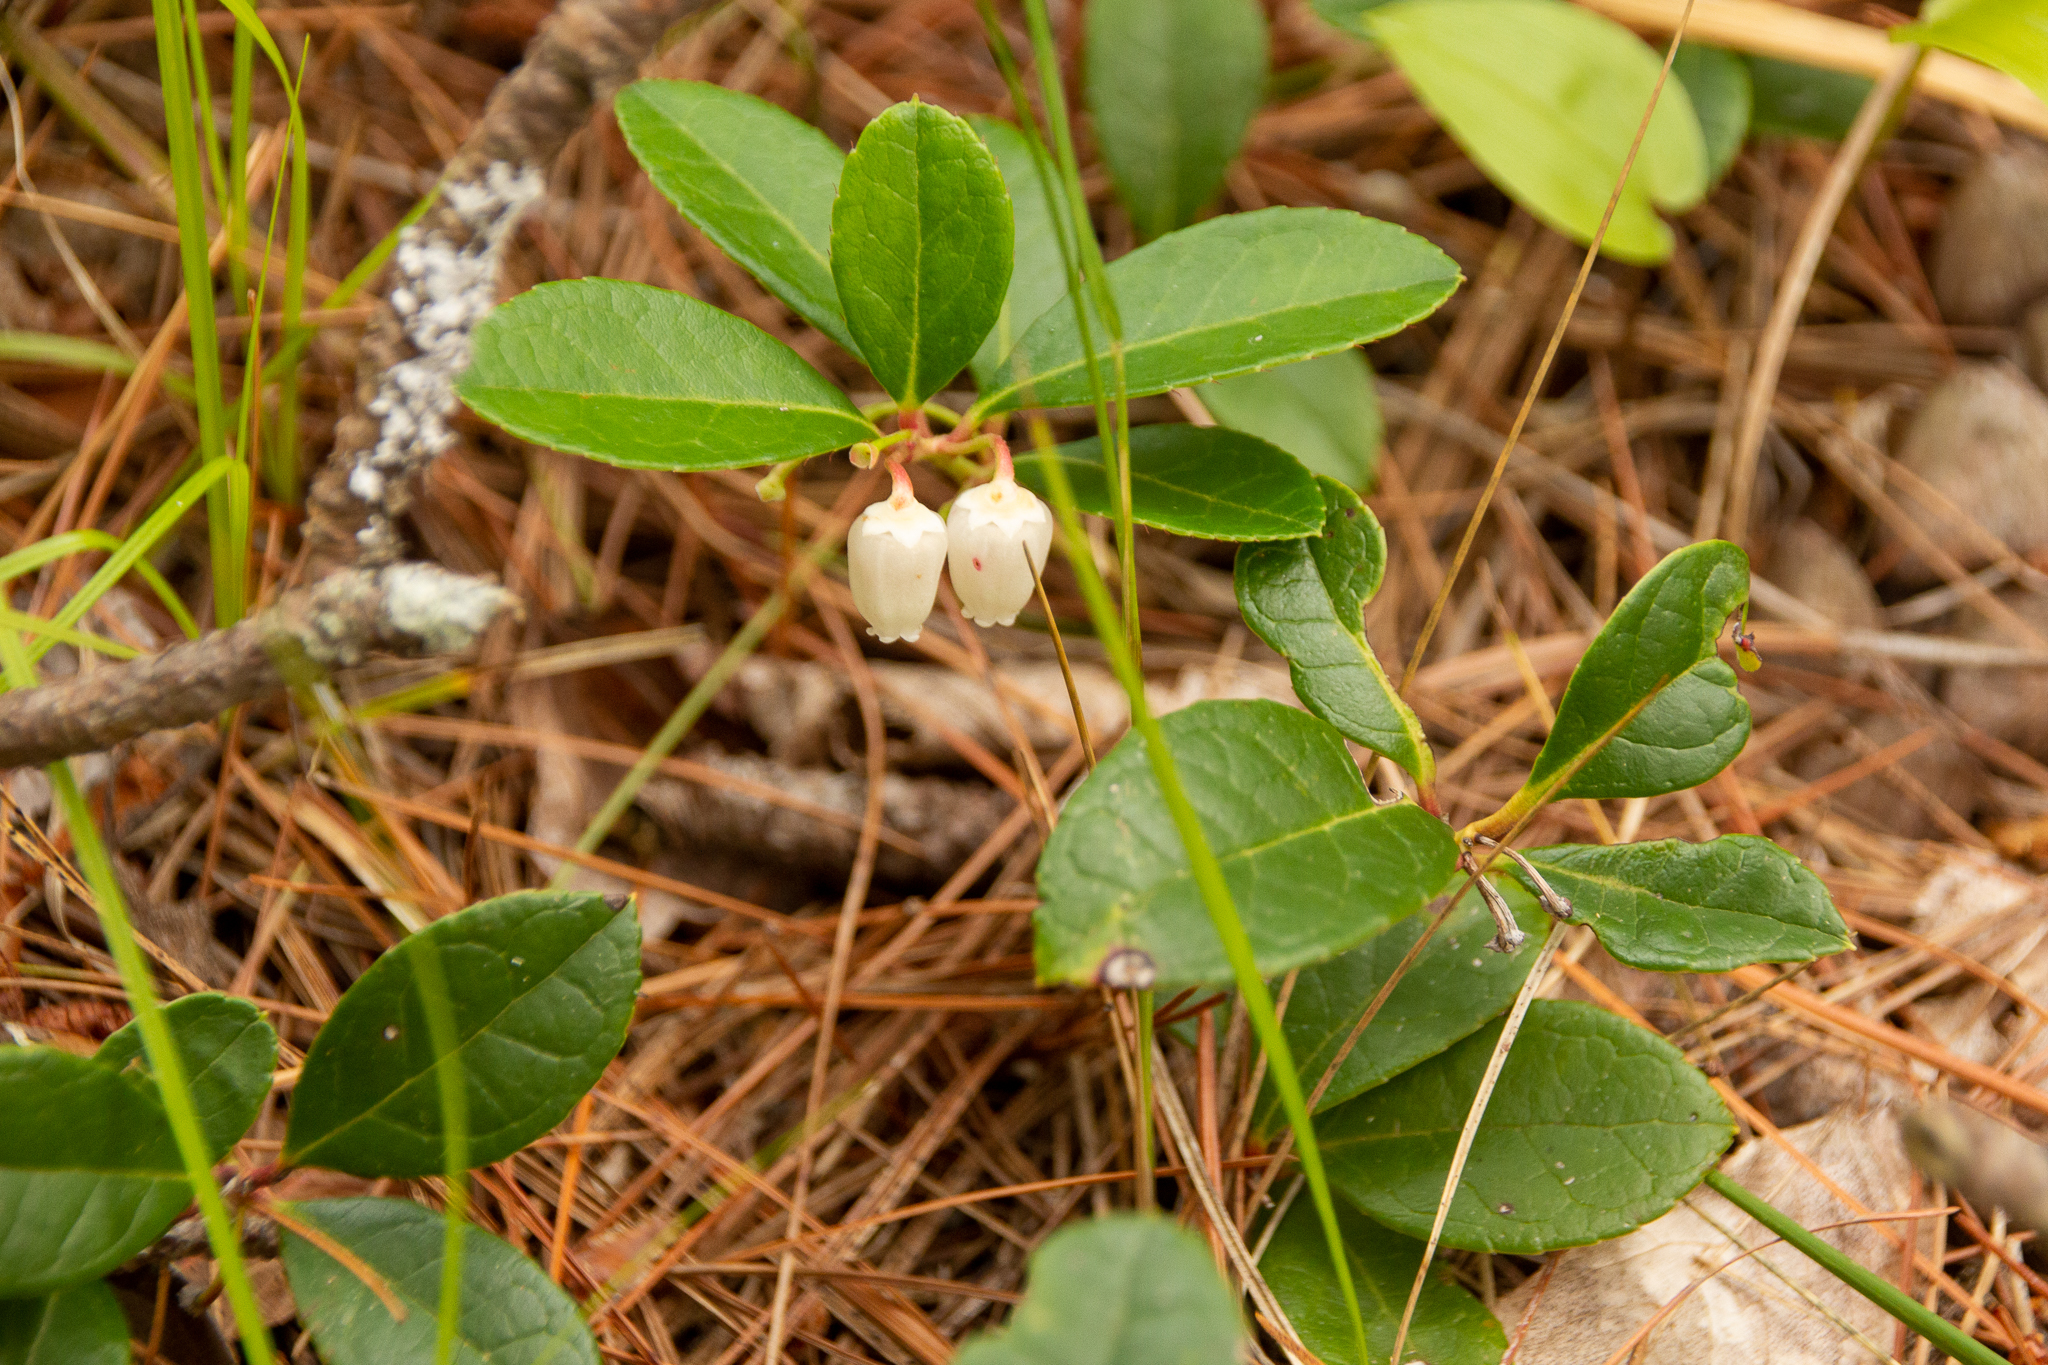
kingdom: Plantae
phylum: Tracheophyta
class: Magnoliopsida
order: Ericales
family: Ericaceae
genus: Gaultheria
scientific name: Gaultheria procumbens
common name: Checkerberry
